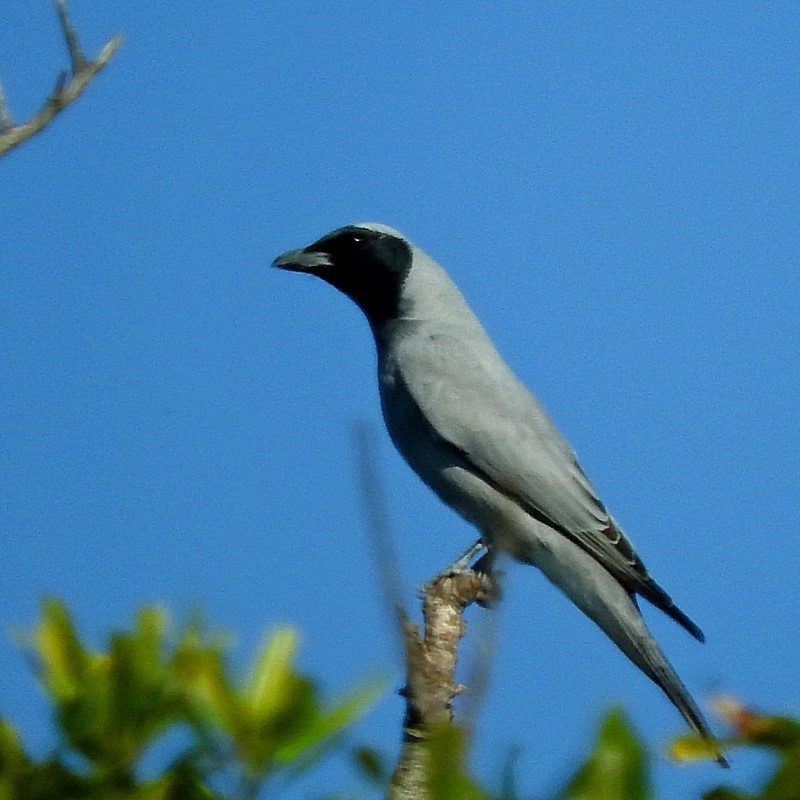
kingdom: Animalia
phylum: Chordata
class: Aves
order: Passeriformes
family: Campephagidae
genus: Coracina
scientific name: Coracina novaehollandiae
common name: Black-faced cuckooshrike
